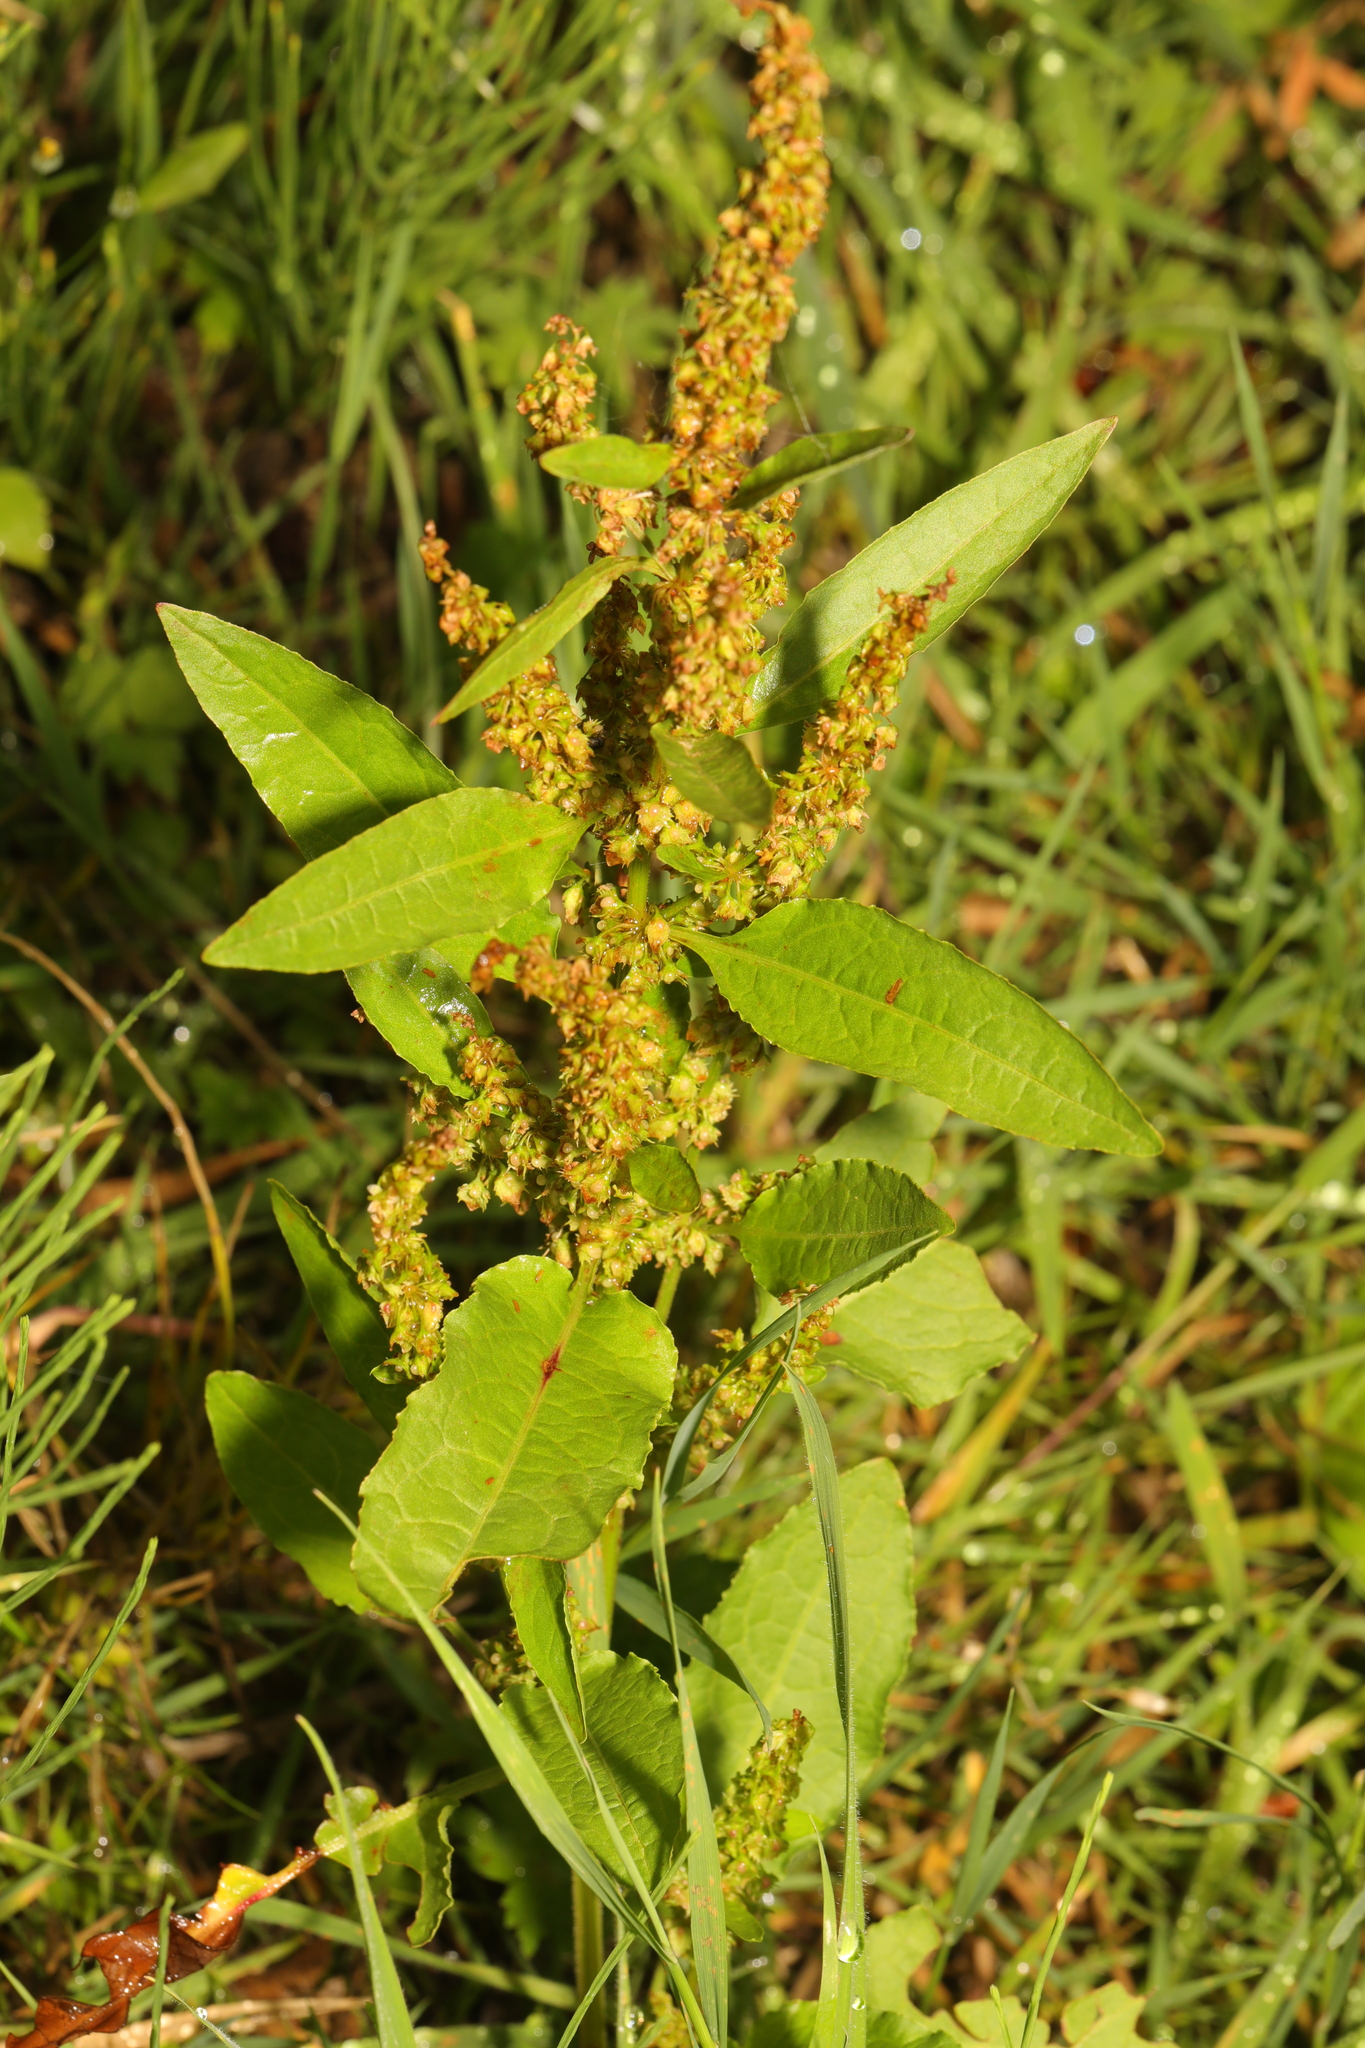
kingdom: Plantae
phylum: Tracheophyta
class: Magnoliopsida
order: Caryophyllales
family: Polygonaceae
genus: Rumex
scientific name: Rumex obtusifolius
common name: Bitter dock
